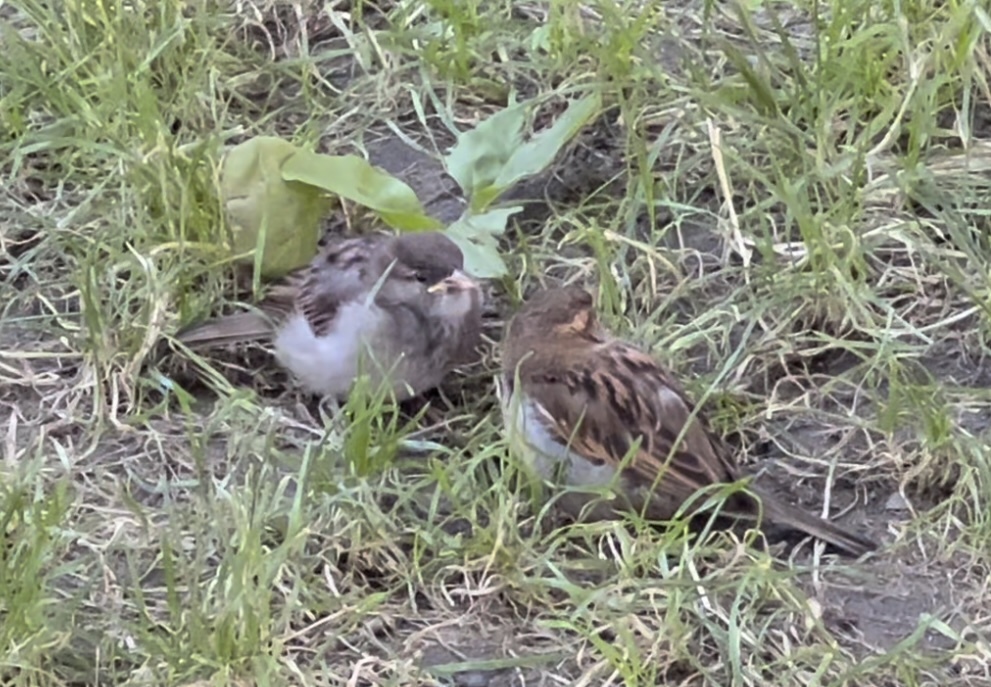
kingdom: Animalia
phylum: Chordata
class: Aves
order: Passeriformes
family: Passeridae
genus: Passer
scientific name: Passer domesticus
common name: House sparrow
